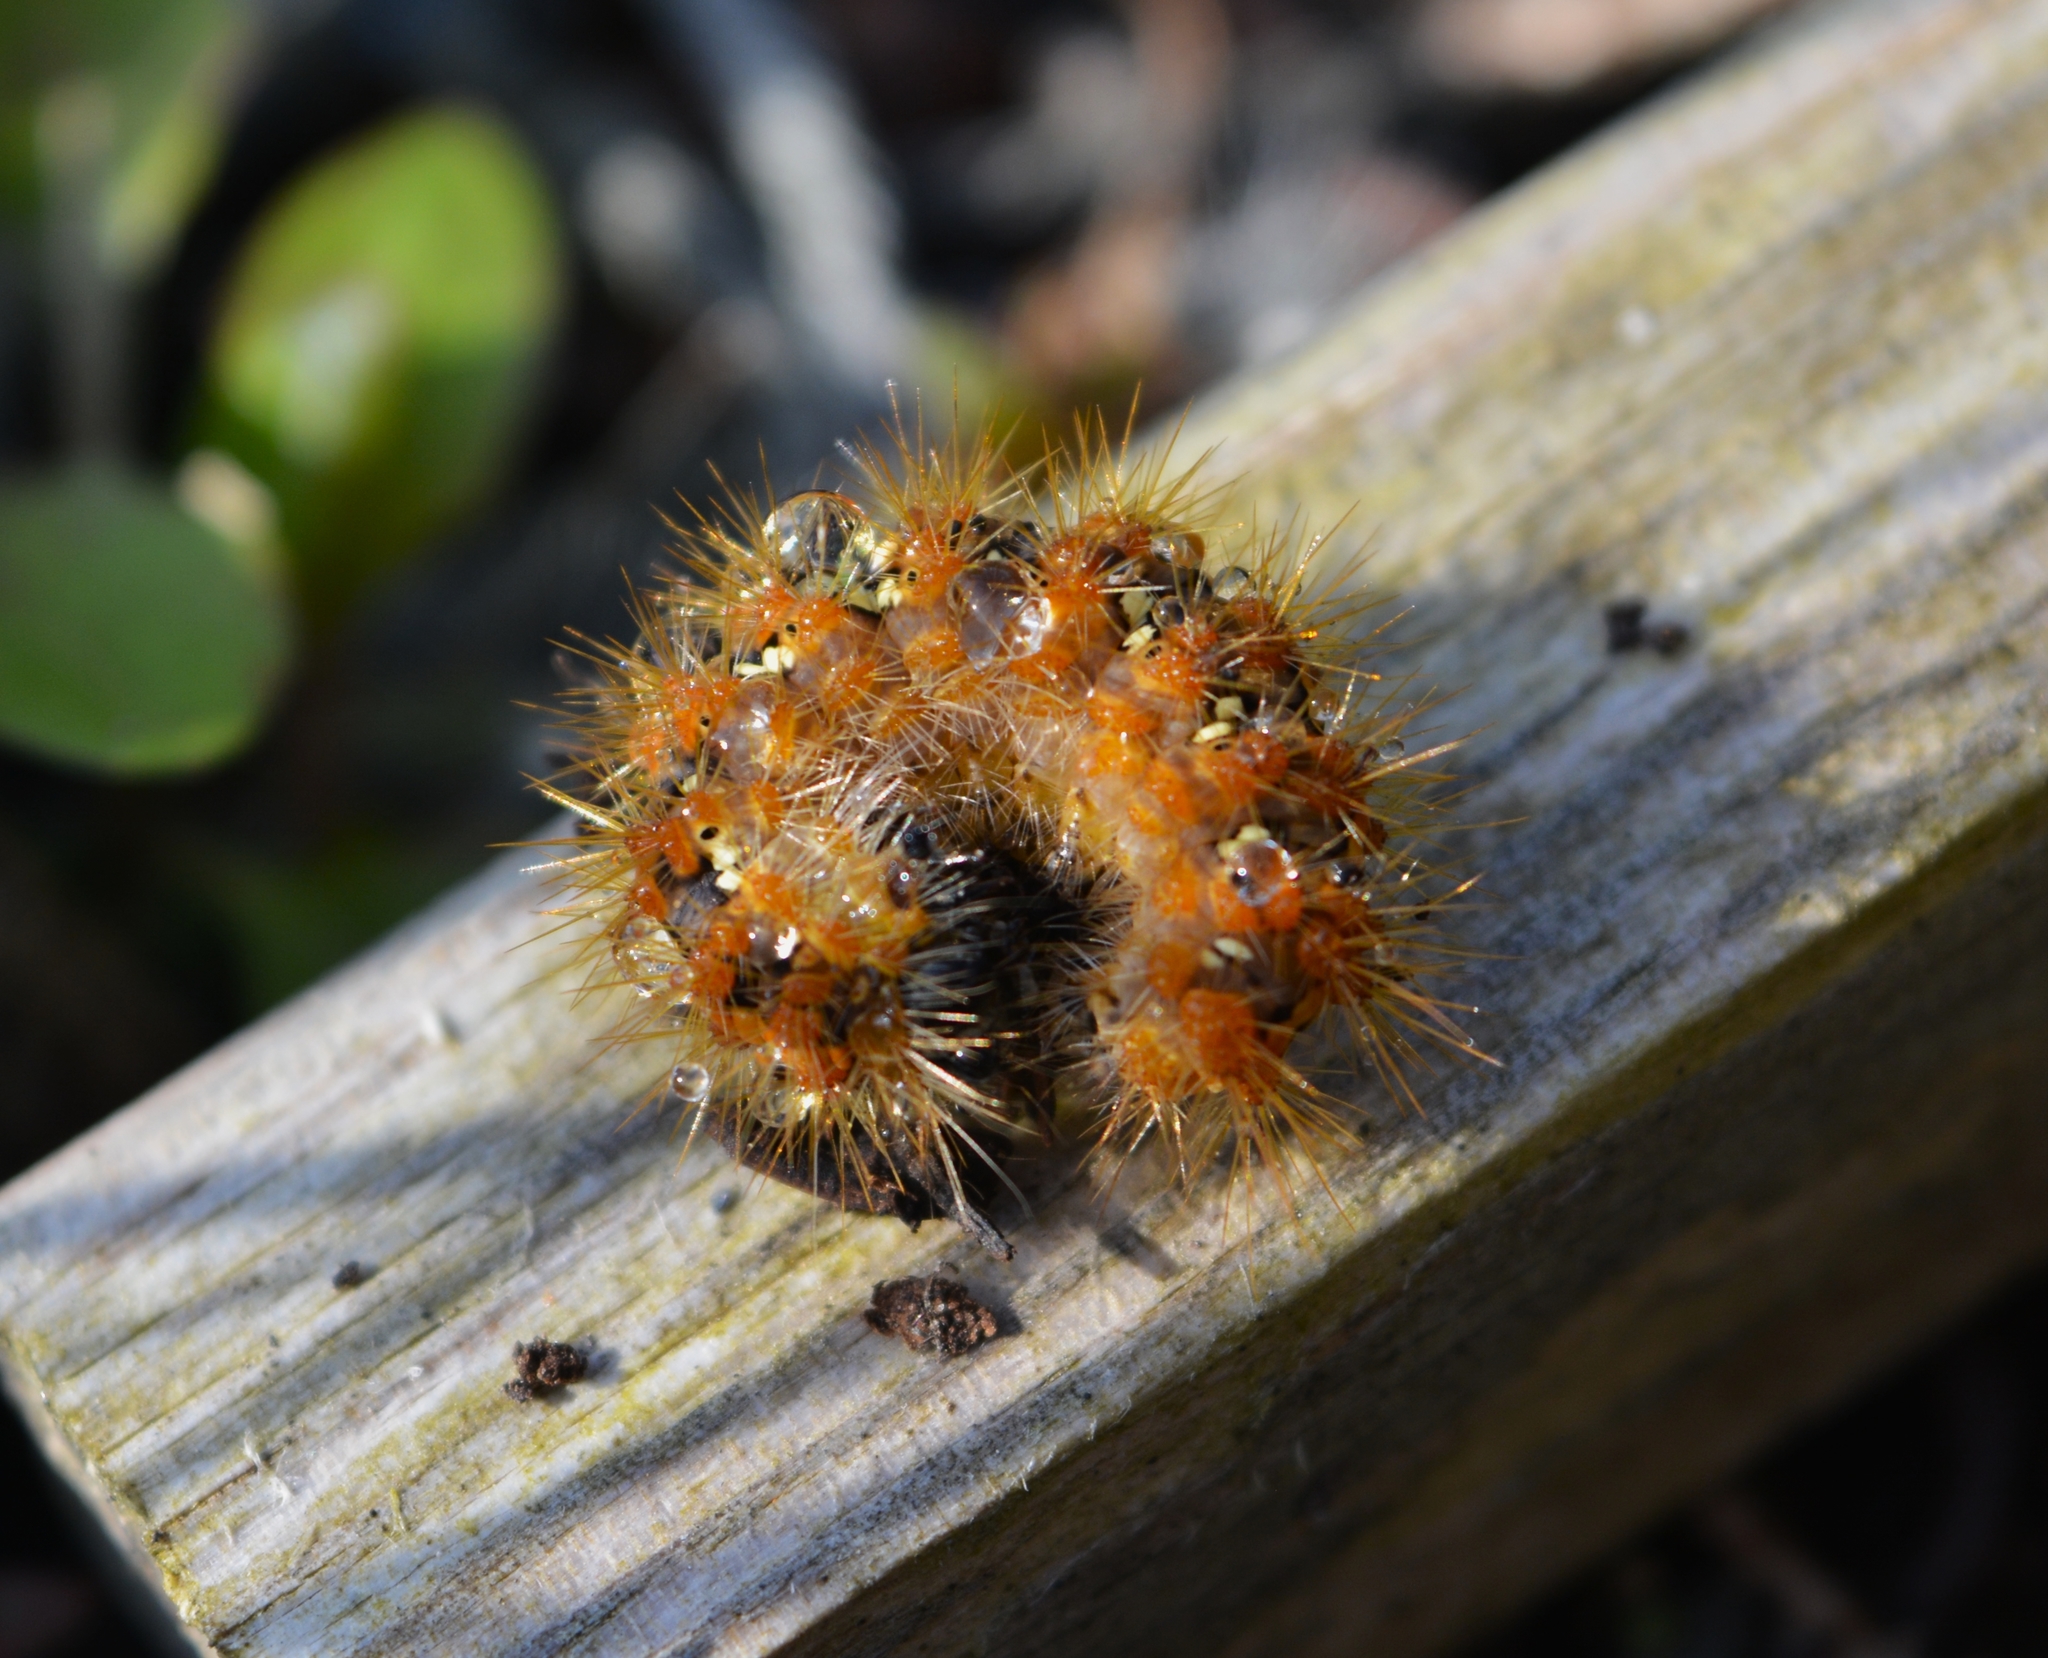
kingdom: Animalia
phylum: Arthropoda
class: Insecta
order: Lepidoptera
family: Erebidae
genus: Euplagia
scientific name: Euplagia quadripunctaria
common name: Jersey tiger
